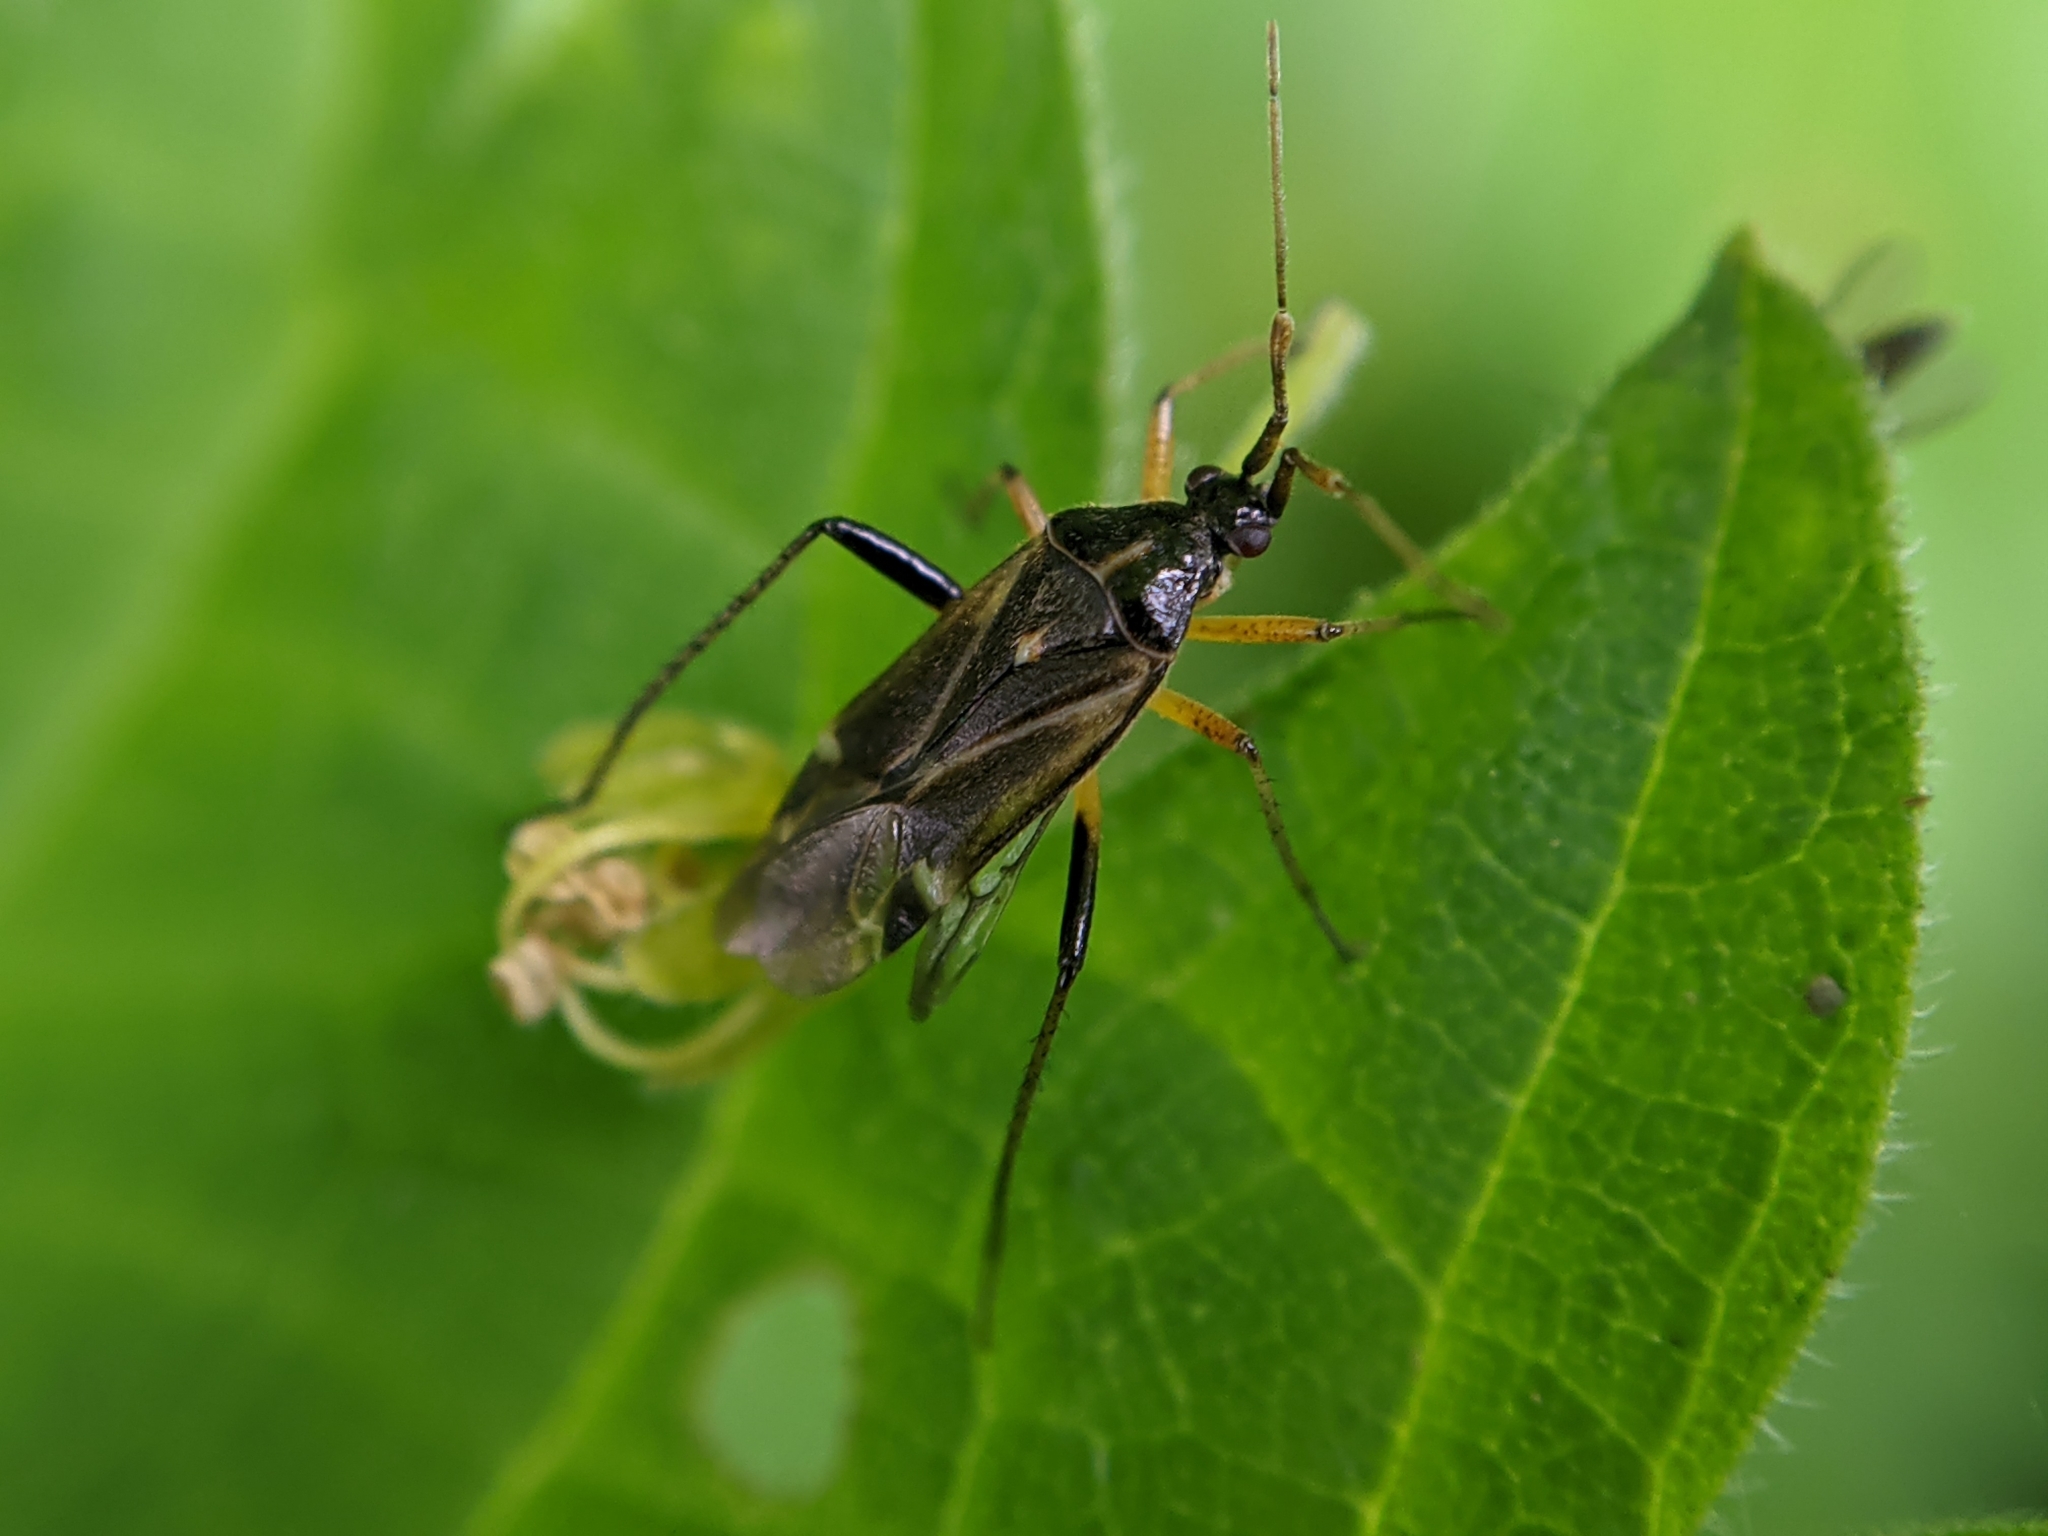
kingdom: Animalia
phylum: Arthropoda
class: Insecta
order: Hemiptera
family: Miridae
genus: Harpocera
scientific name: Harpocera thoracica
